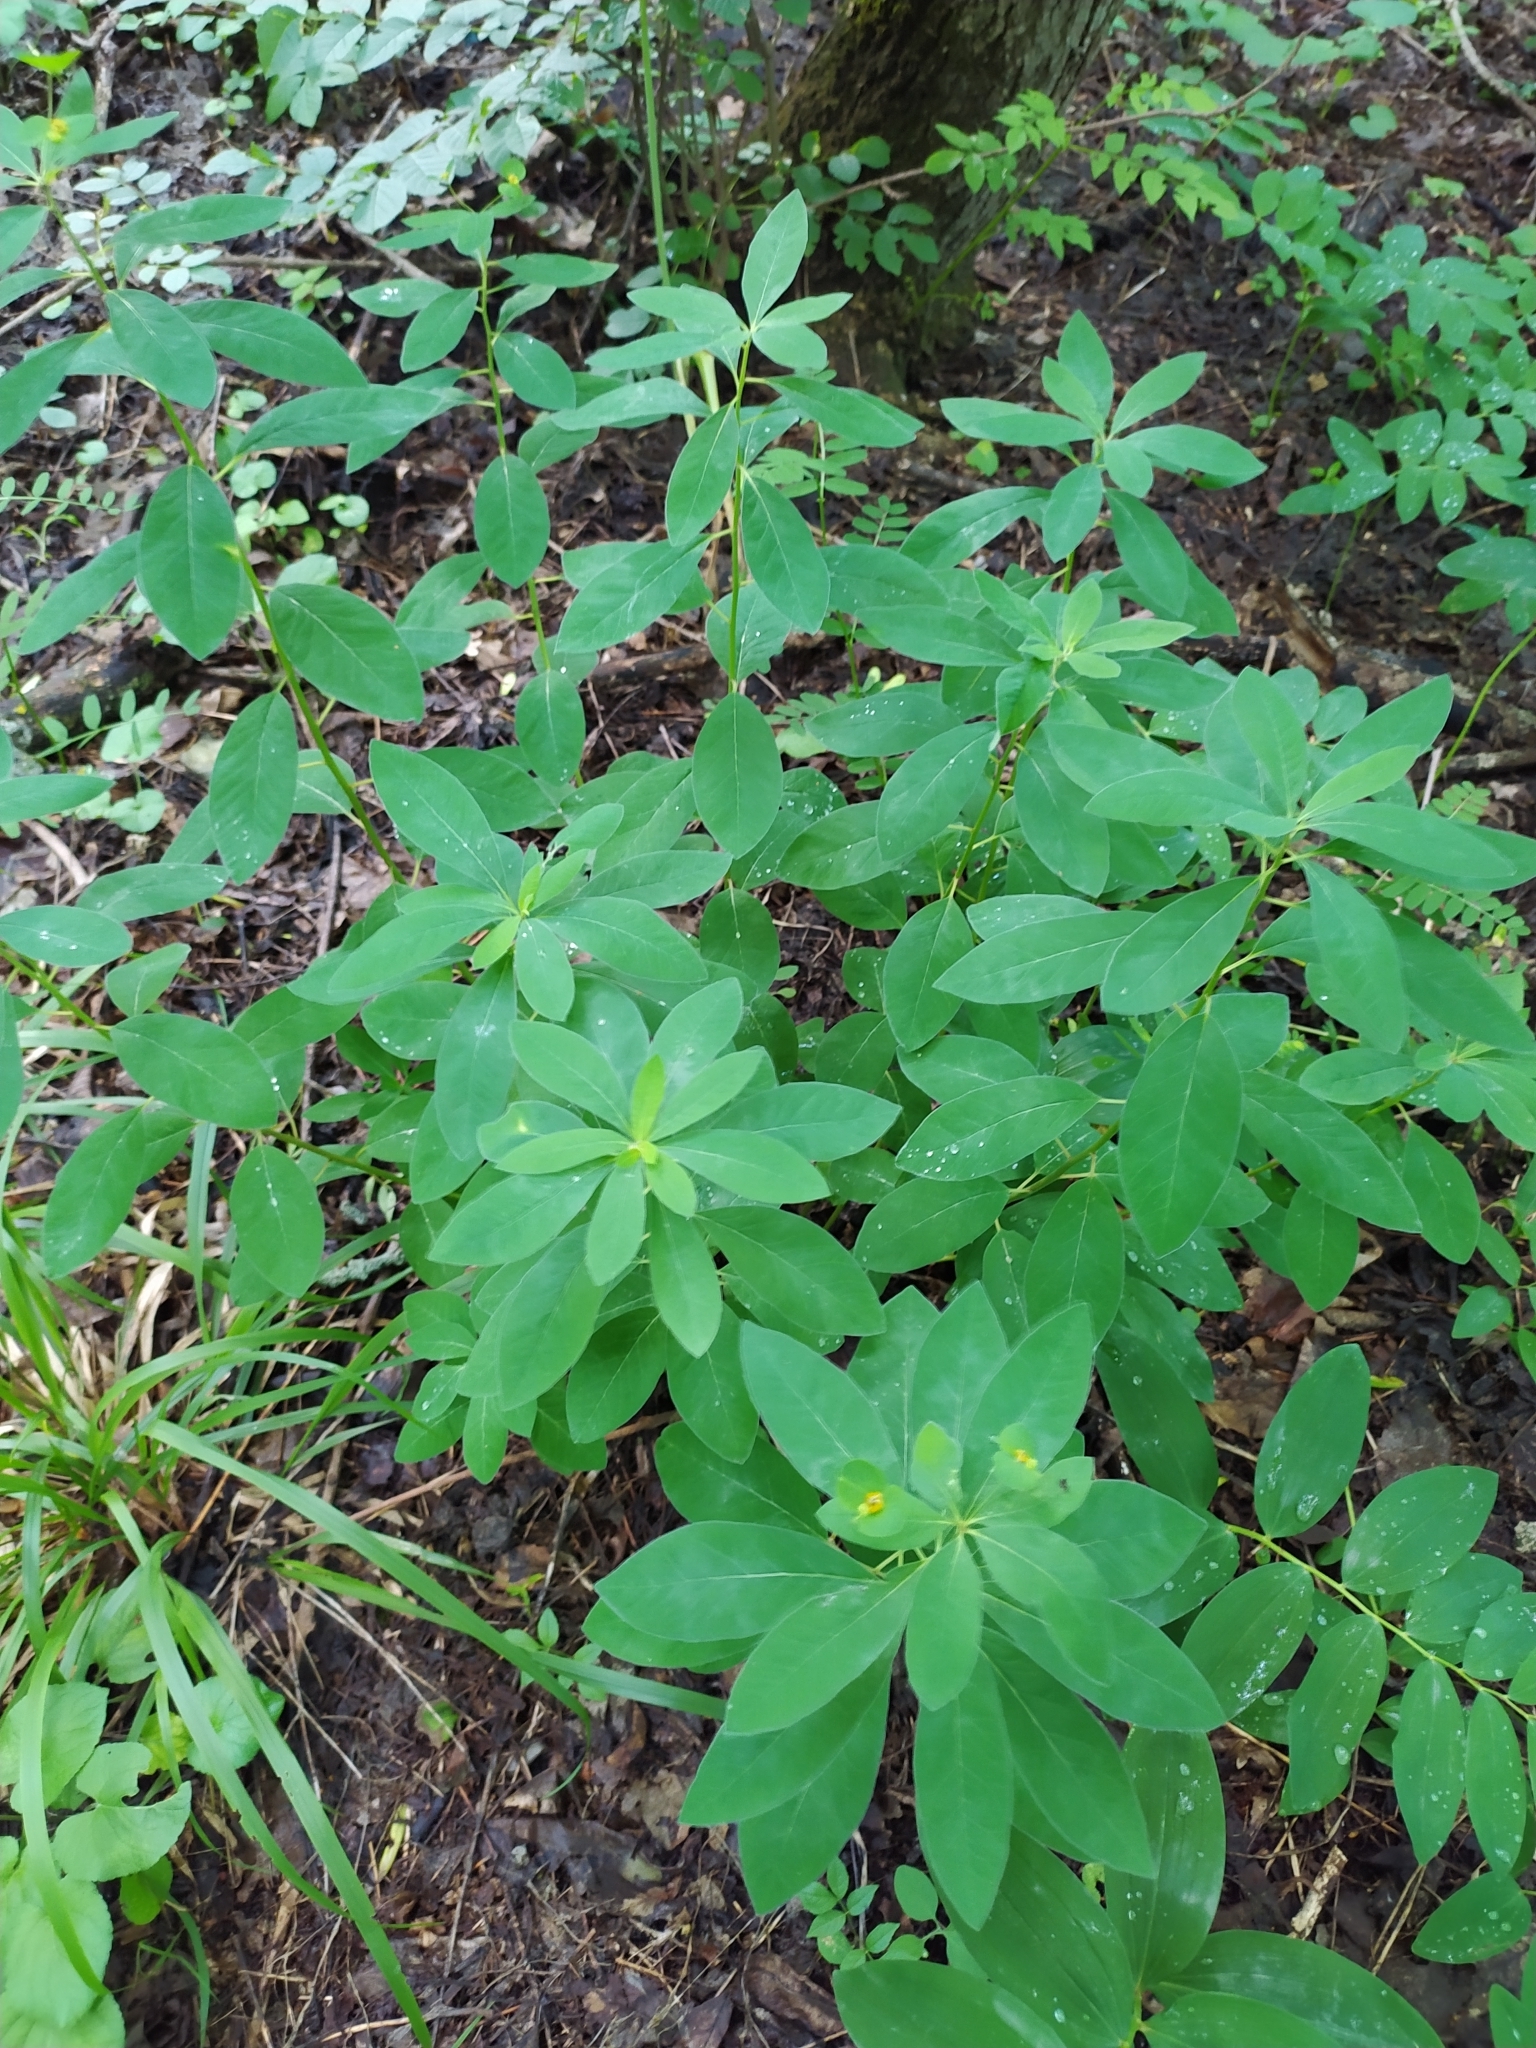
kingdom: Plantae
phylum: Tracheophyta
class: Magnoliopsida
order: Malpighiales
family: Euphorbiaceae
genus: Euphorbia
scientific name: Euphorbia squamosa
